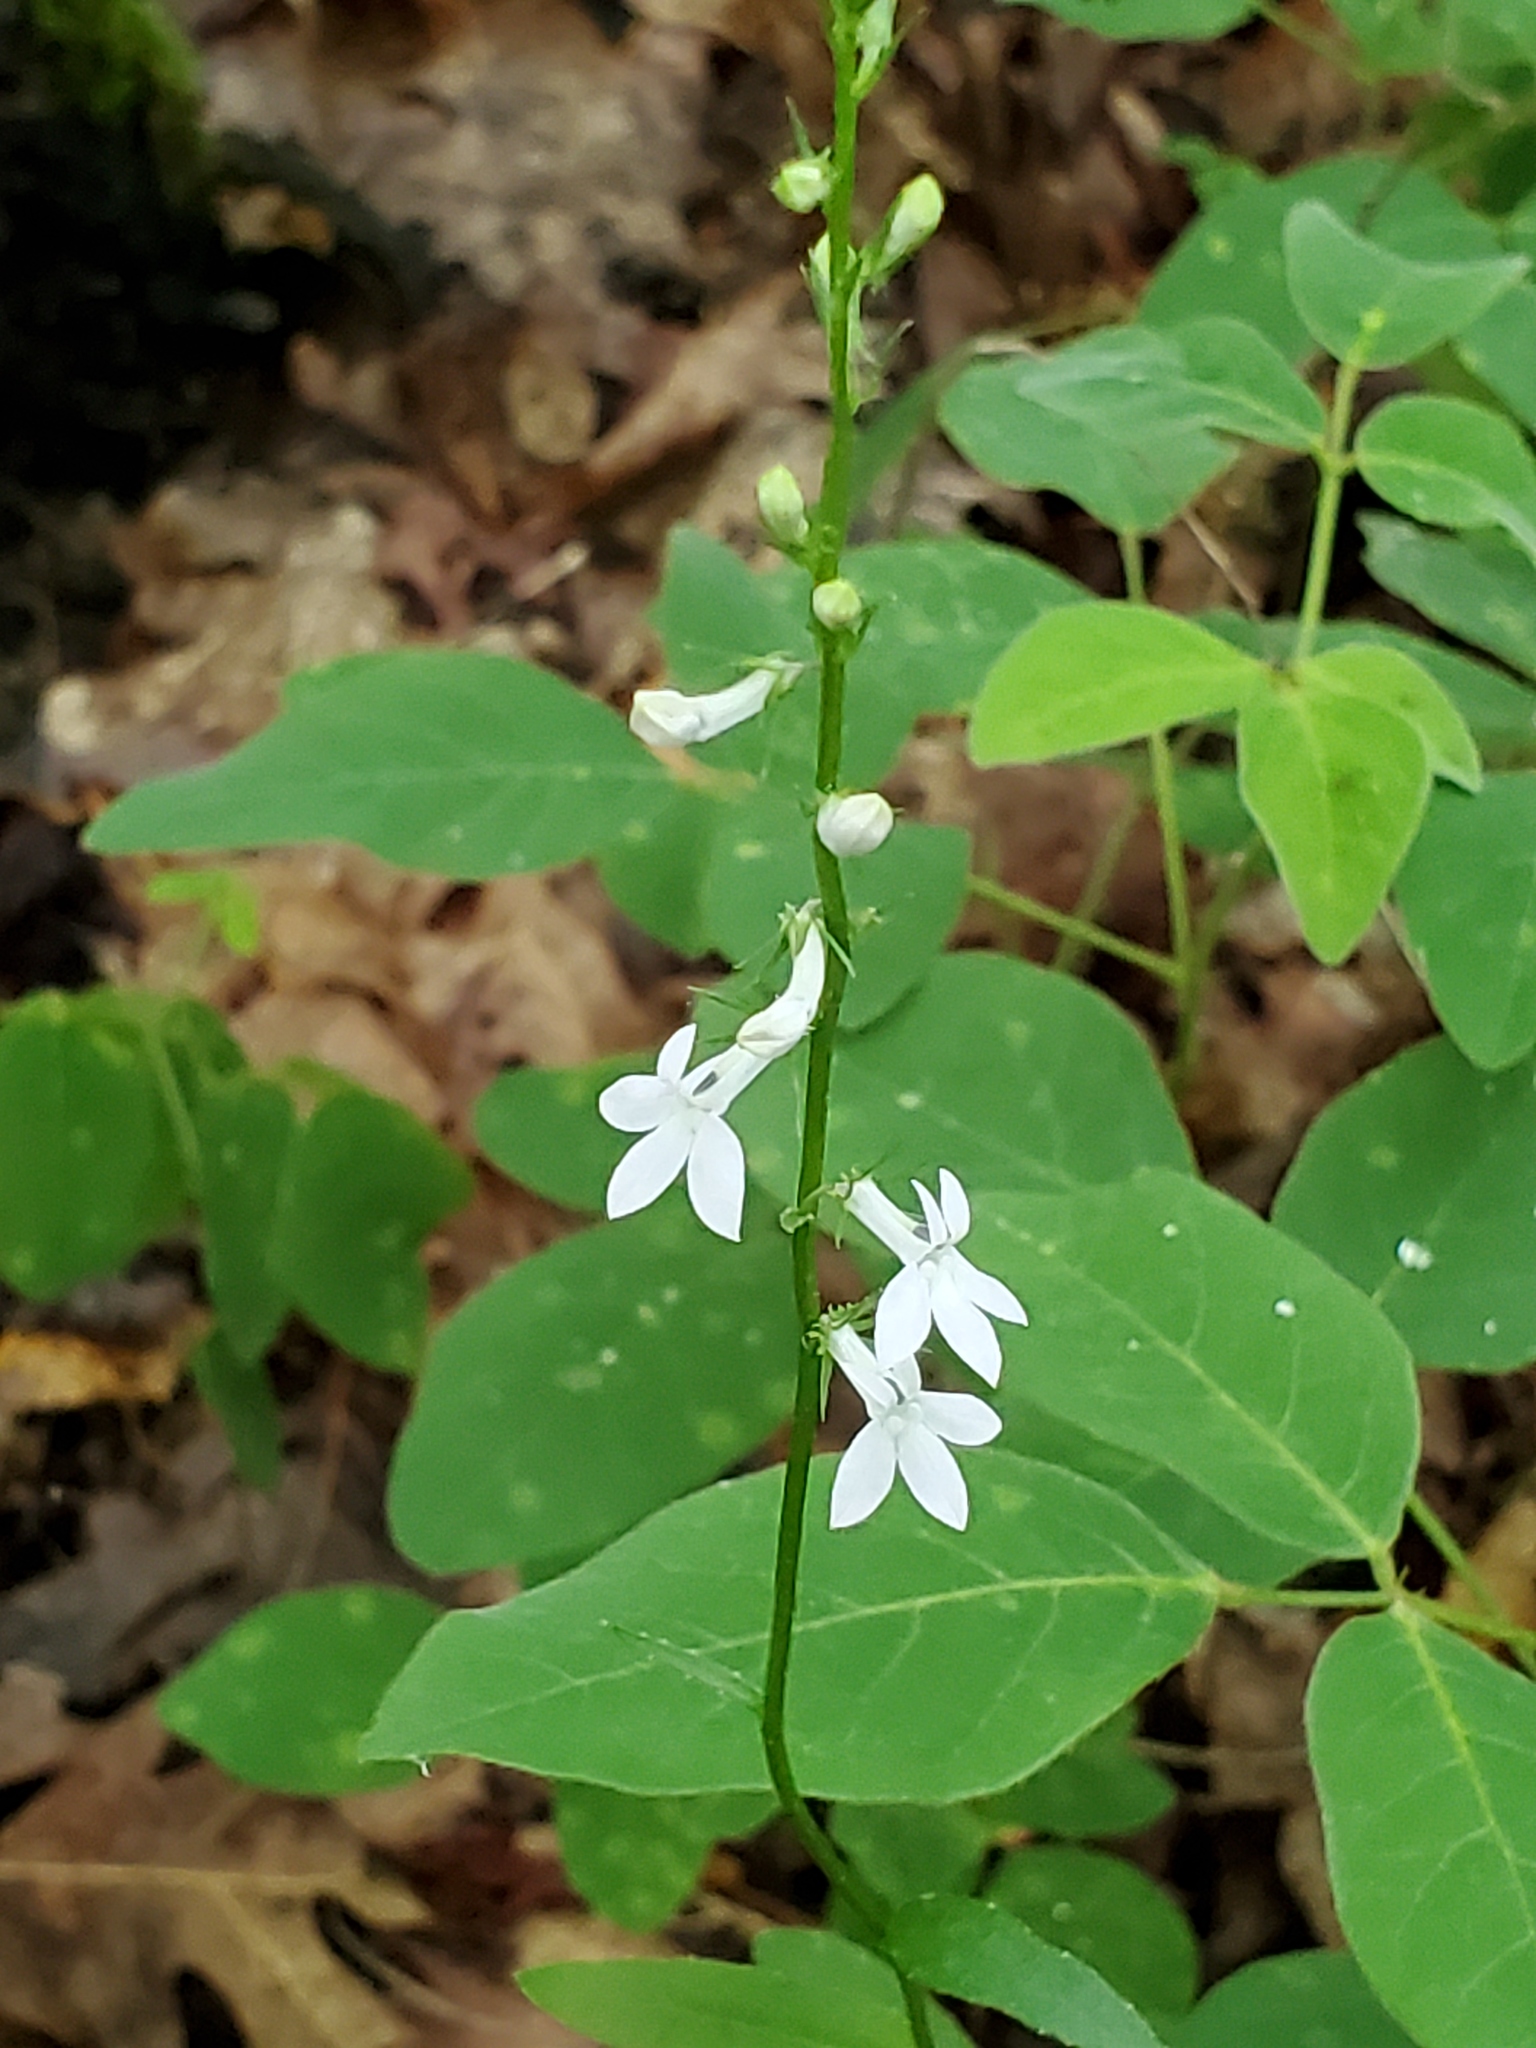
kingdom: Plantae
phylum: Tracheophyta
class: Magnoliopsida
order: Asterales
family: Campanulaceae
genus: Lobelia
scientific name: Lobelia spicata
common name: Pale-spike lobelia
